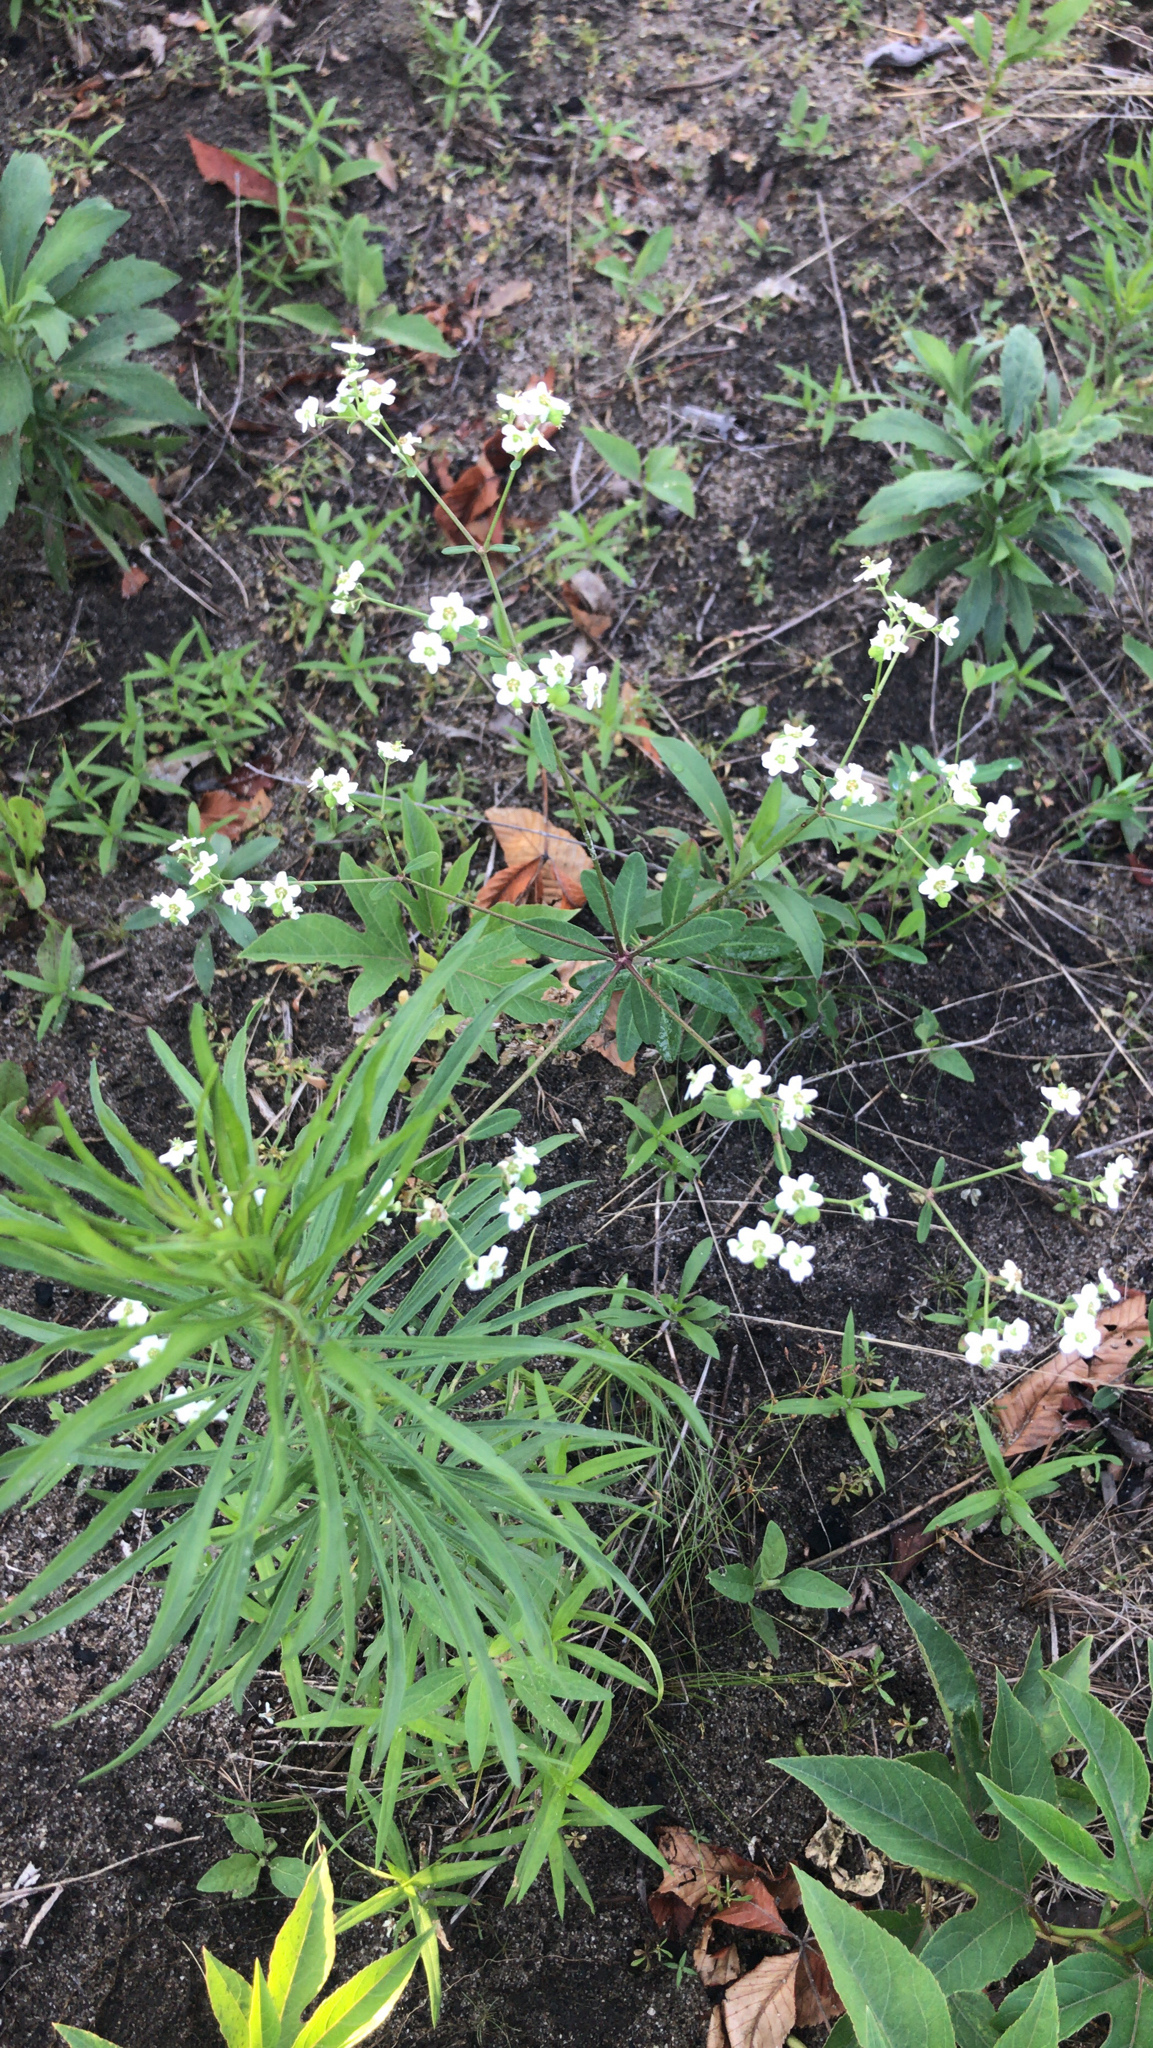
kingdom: Plantae
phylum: Tracheophyta
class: Magnoliopsida
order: Malpighiales
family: Euphorbiaceae
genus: Euphorbia
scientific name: Euphorbia corollata
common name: Flowering spurge
